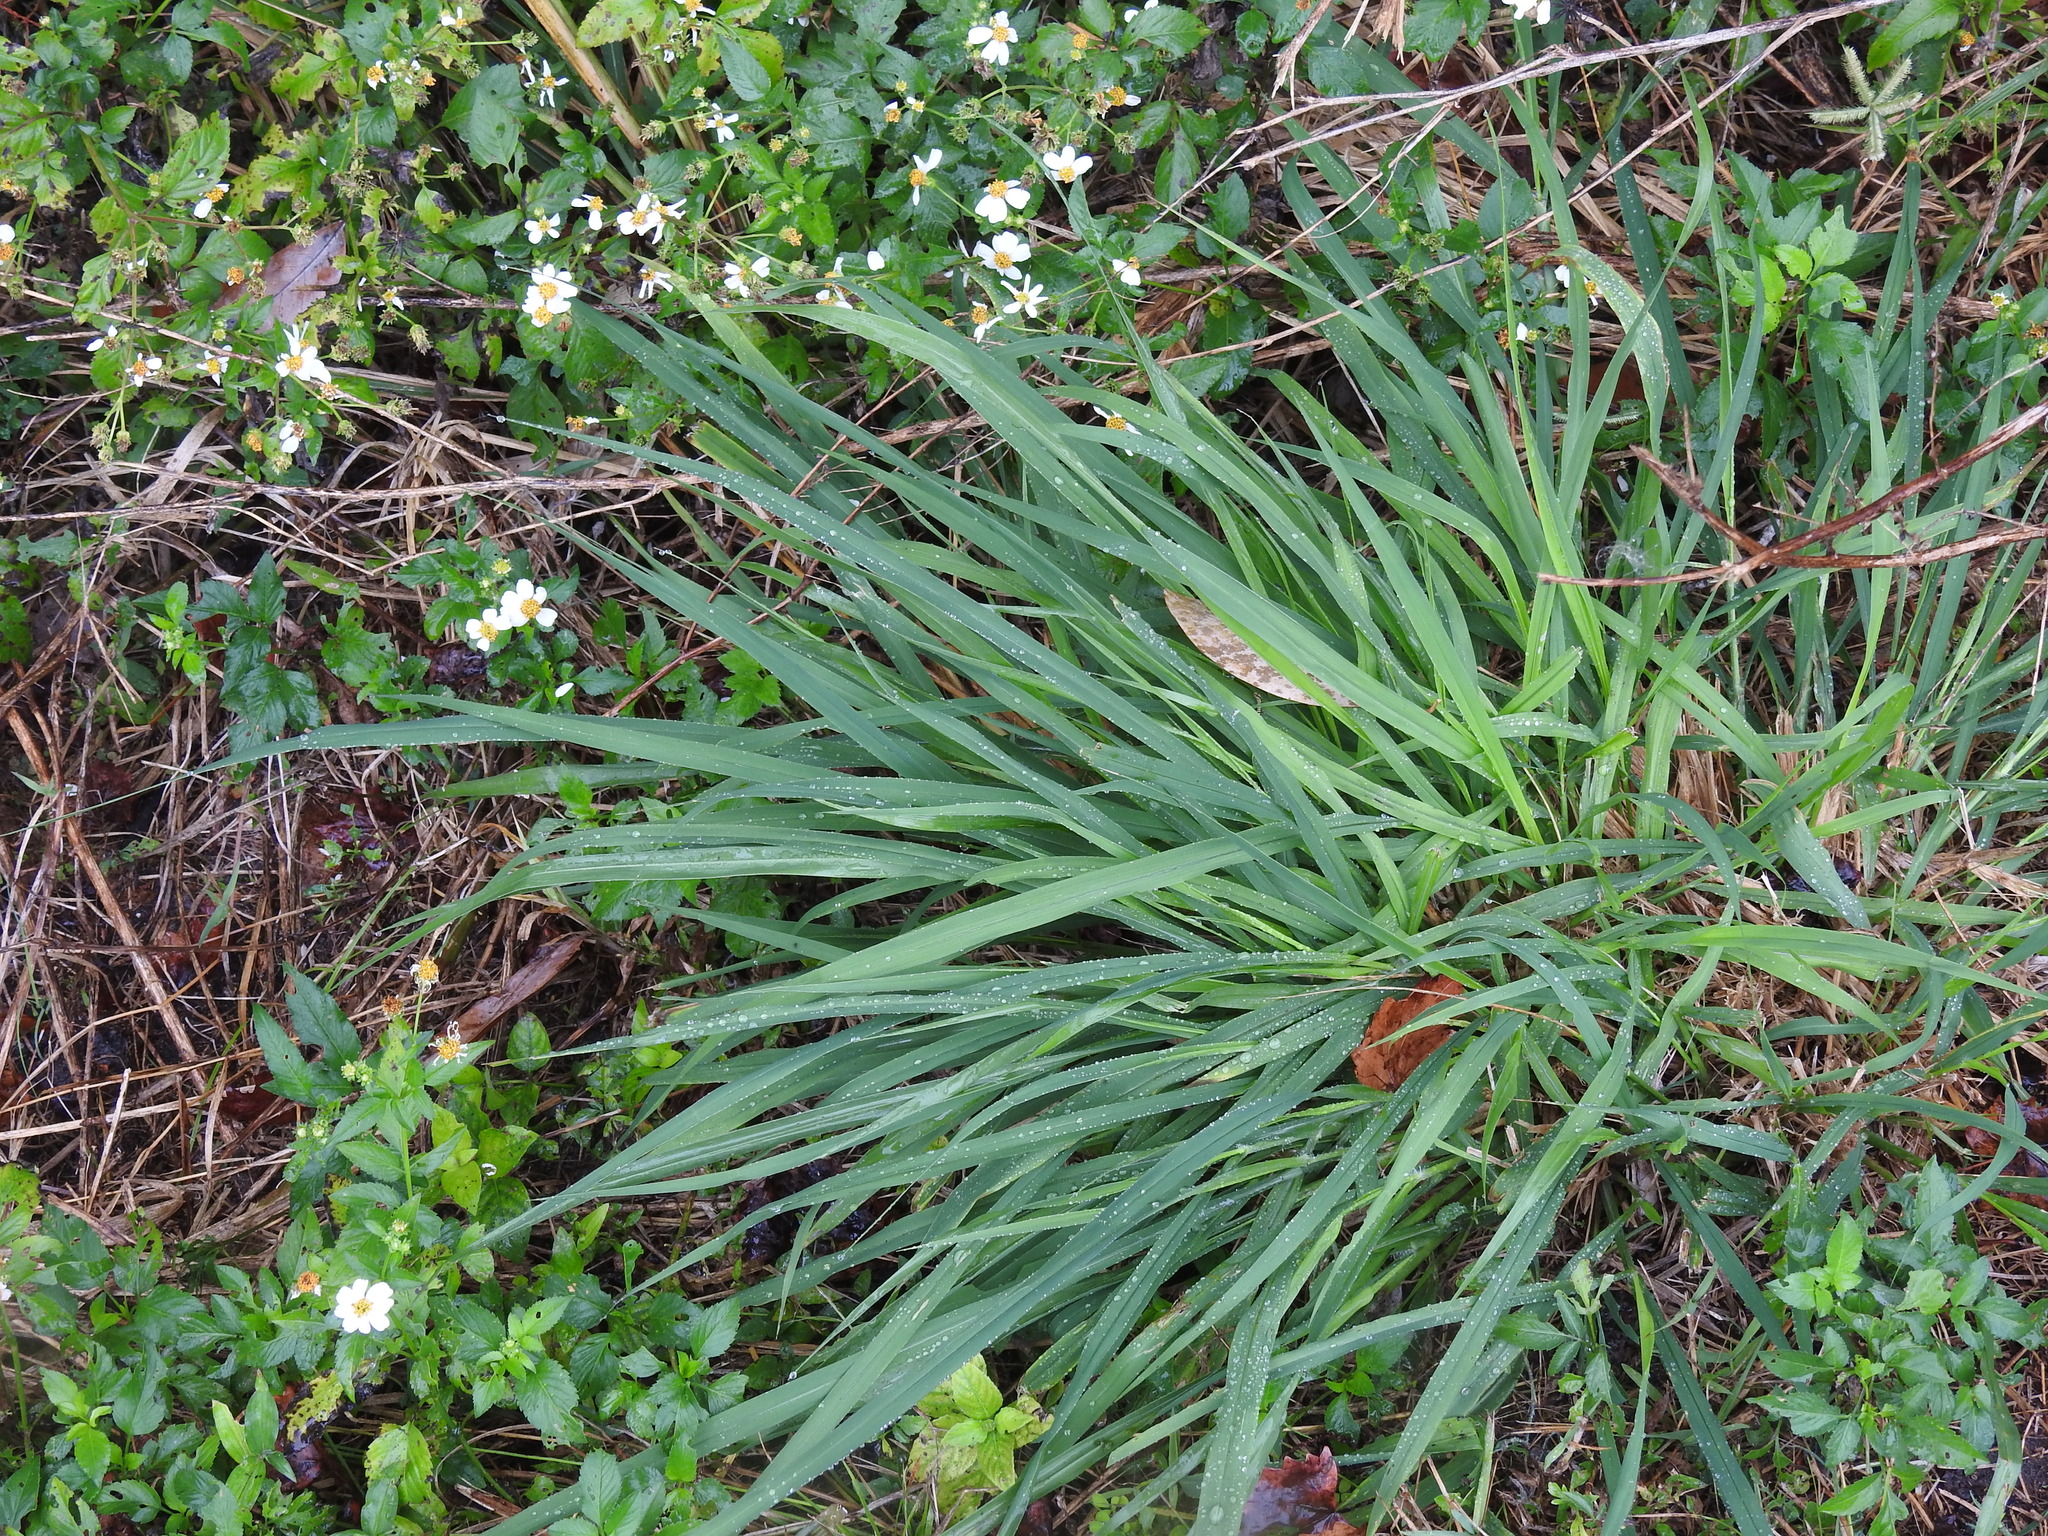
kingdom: Plantae
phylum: Tracheophyta
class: Liliopsida
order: Poales
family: Poaceae
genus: Megathyrsus
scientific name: Megathyrsus maximus
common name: Guineagrass
